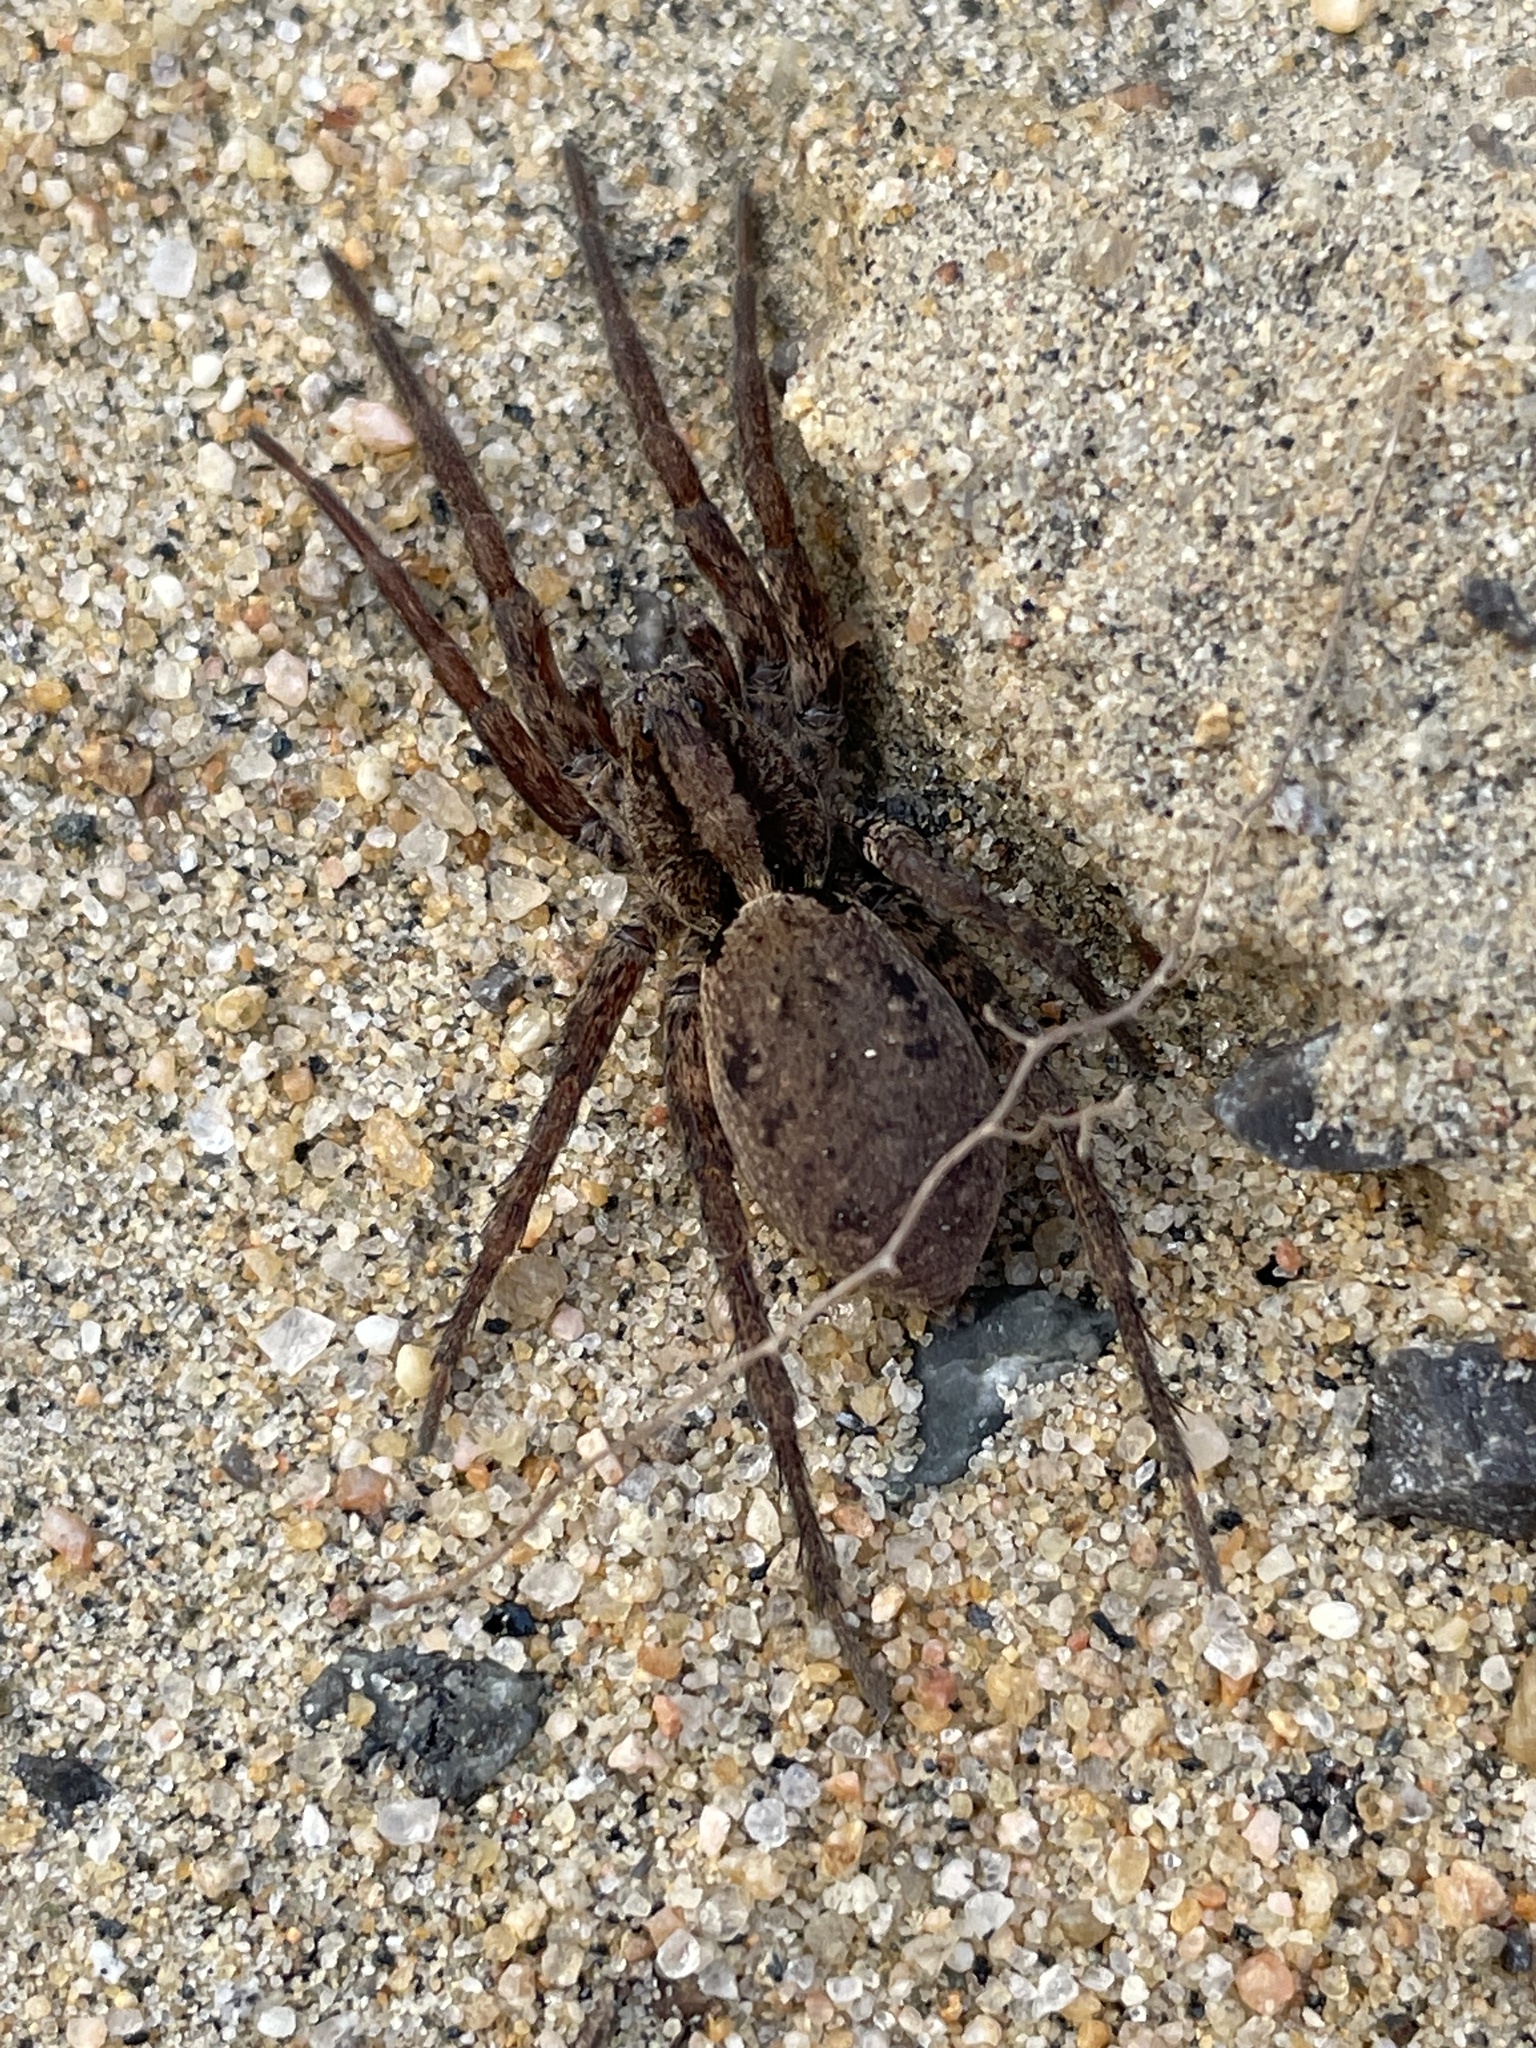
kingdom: Animalia
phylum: Arthropoda
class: Arachnida
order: Araneae
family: Lycosidae
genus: Gladicosa
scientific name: Gladicosa gulosa
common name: Drumming sword wolf spider
